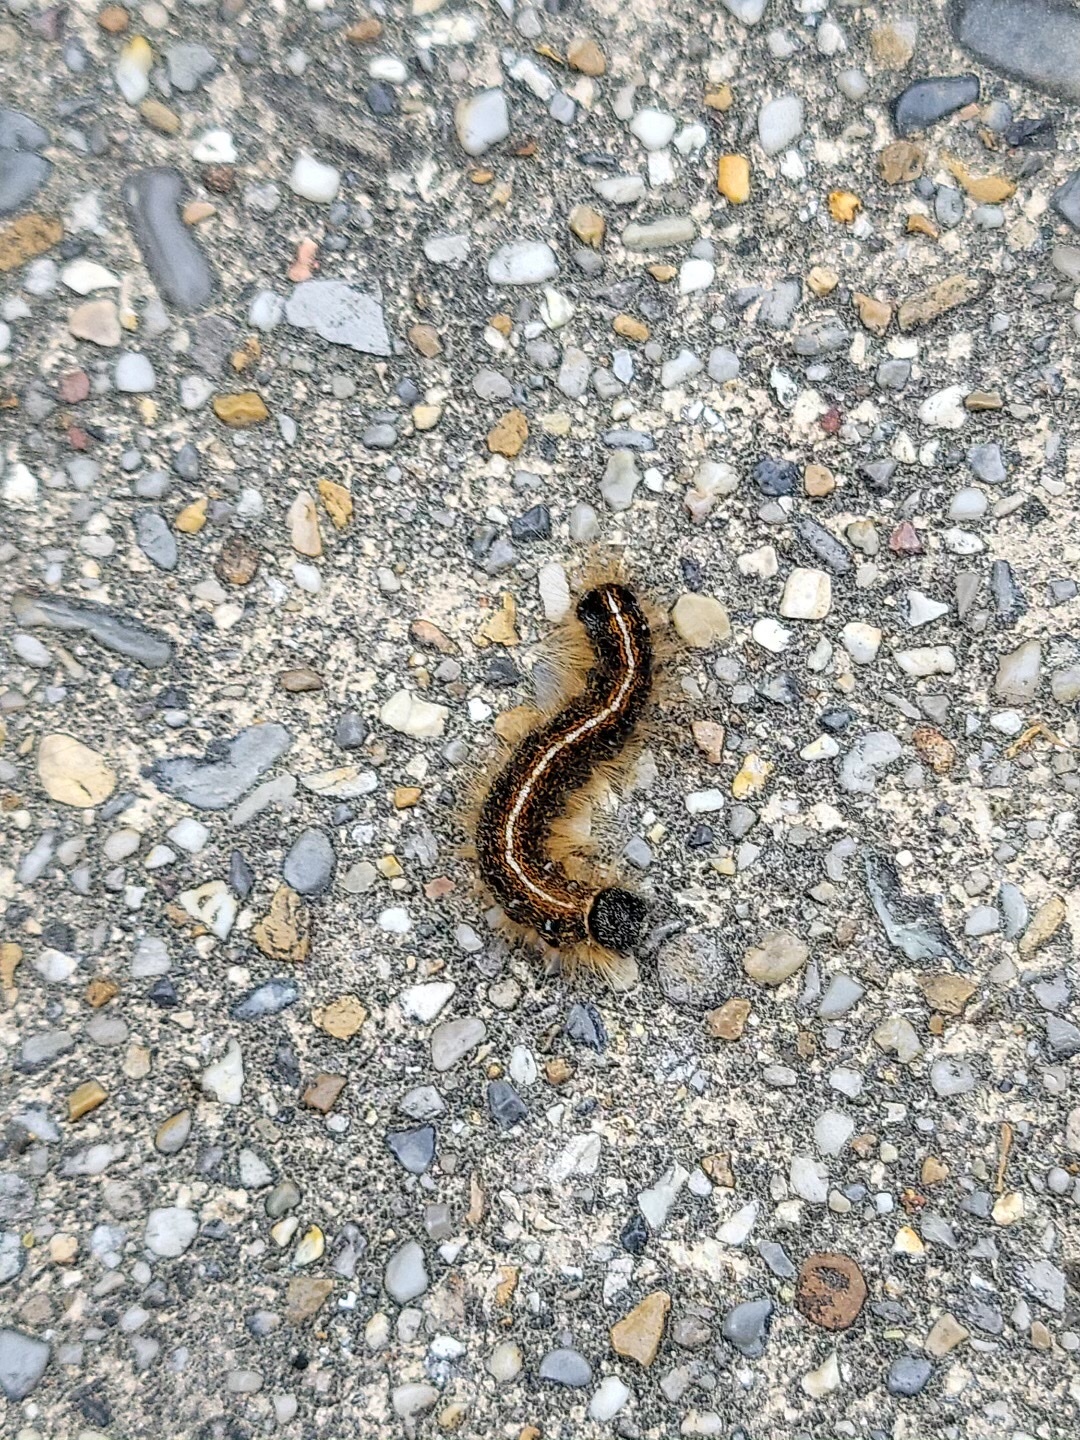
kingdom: Animalia
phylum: Arthropoda
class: Insecta
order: Lepidoptera
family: Lasiocampidae
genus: Malacosoma
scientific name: Malacosoma americana
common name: Eastern tent caterpillar moth
